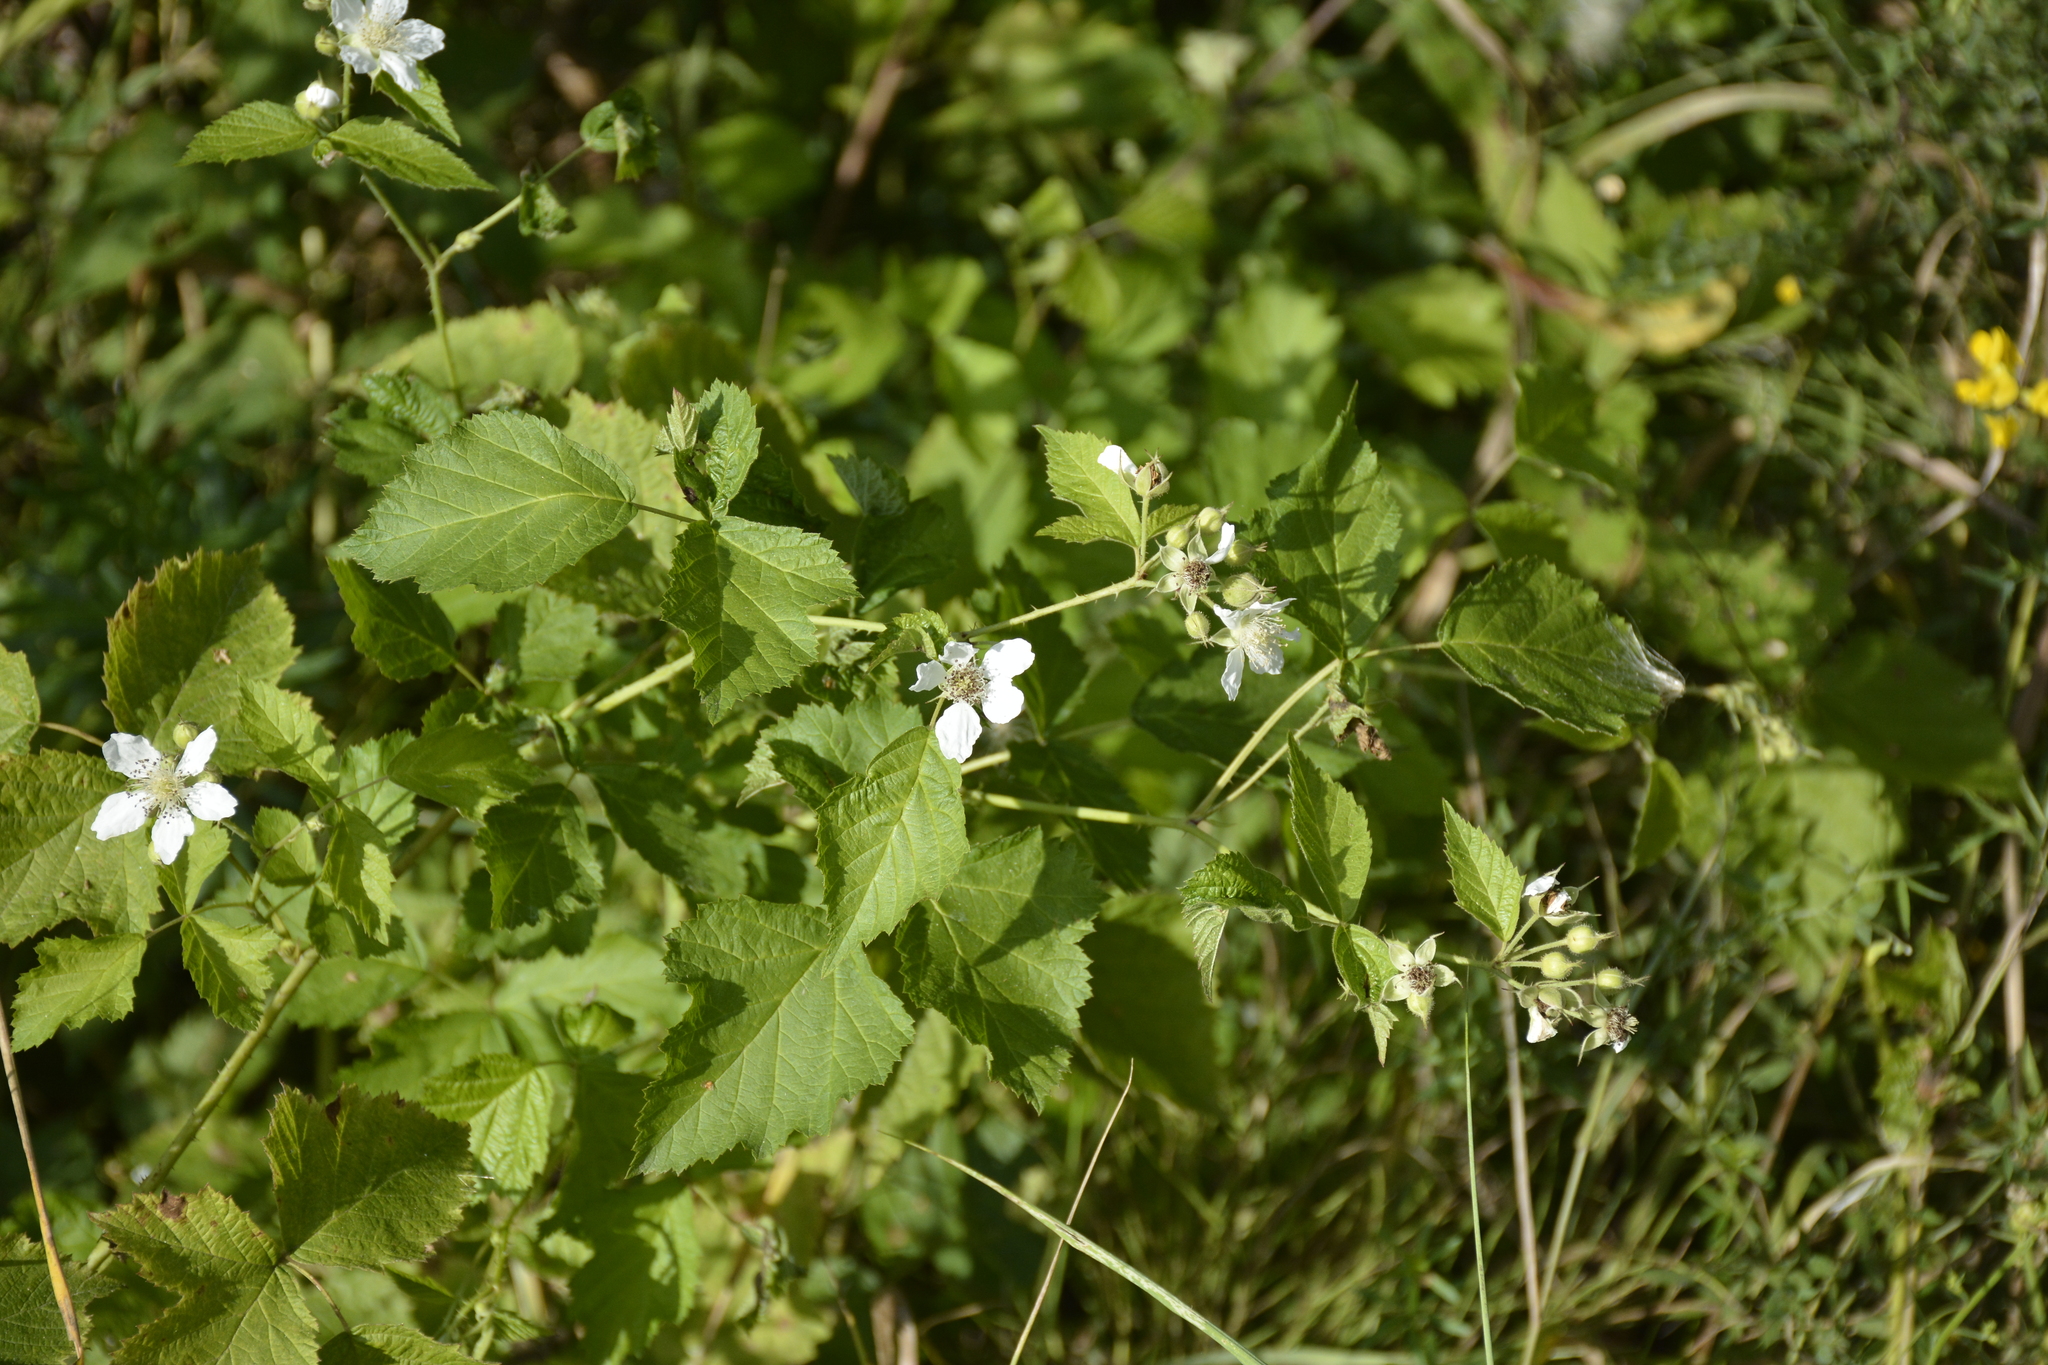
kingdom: Plantae
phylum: Tracheophyta
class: Magnoliopsida
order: Rosales
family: Rosaceae
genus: Rubus
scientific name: Rubus caesius
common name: Dewberry
